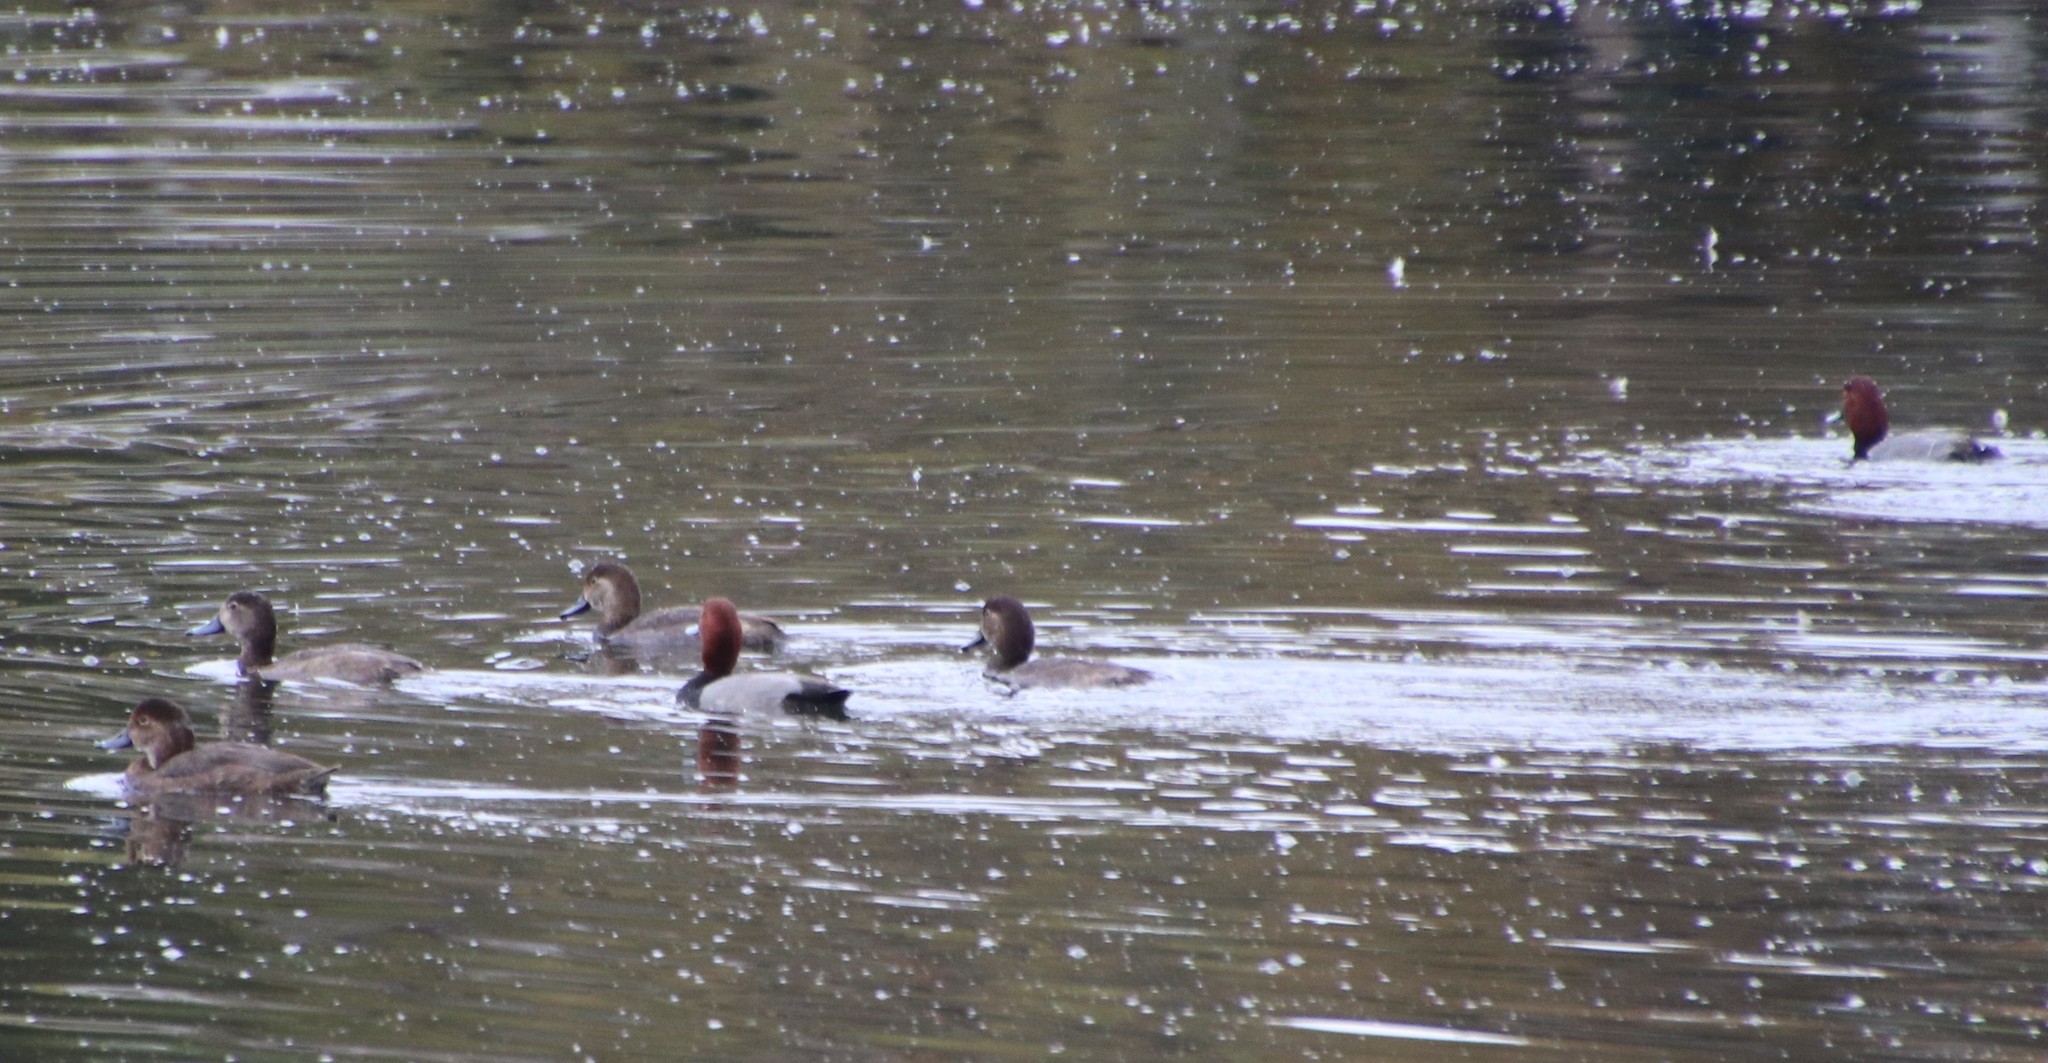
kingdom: Animalia
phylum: Chordata
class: Aves
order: Anseriformes
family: Anatidae
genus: Aythya
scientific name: Aythya americana
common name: Redhead
